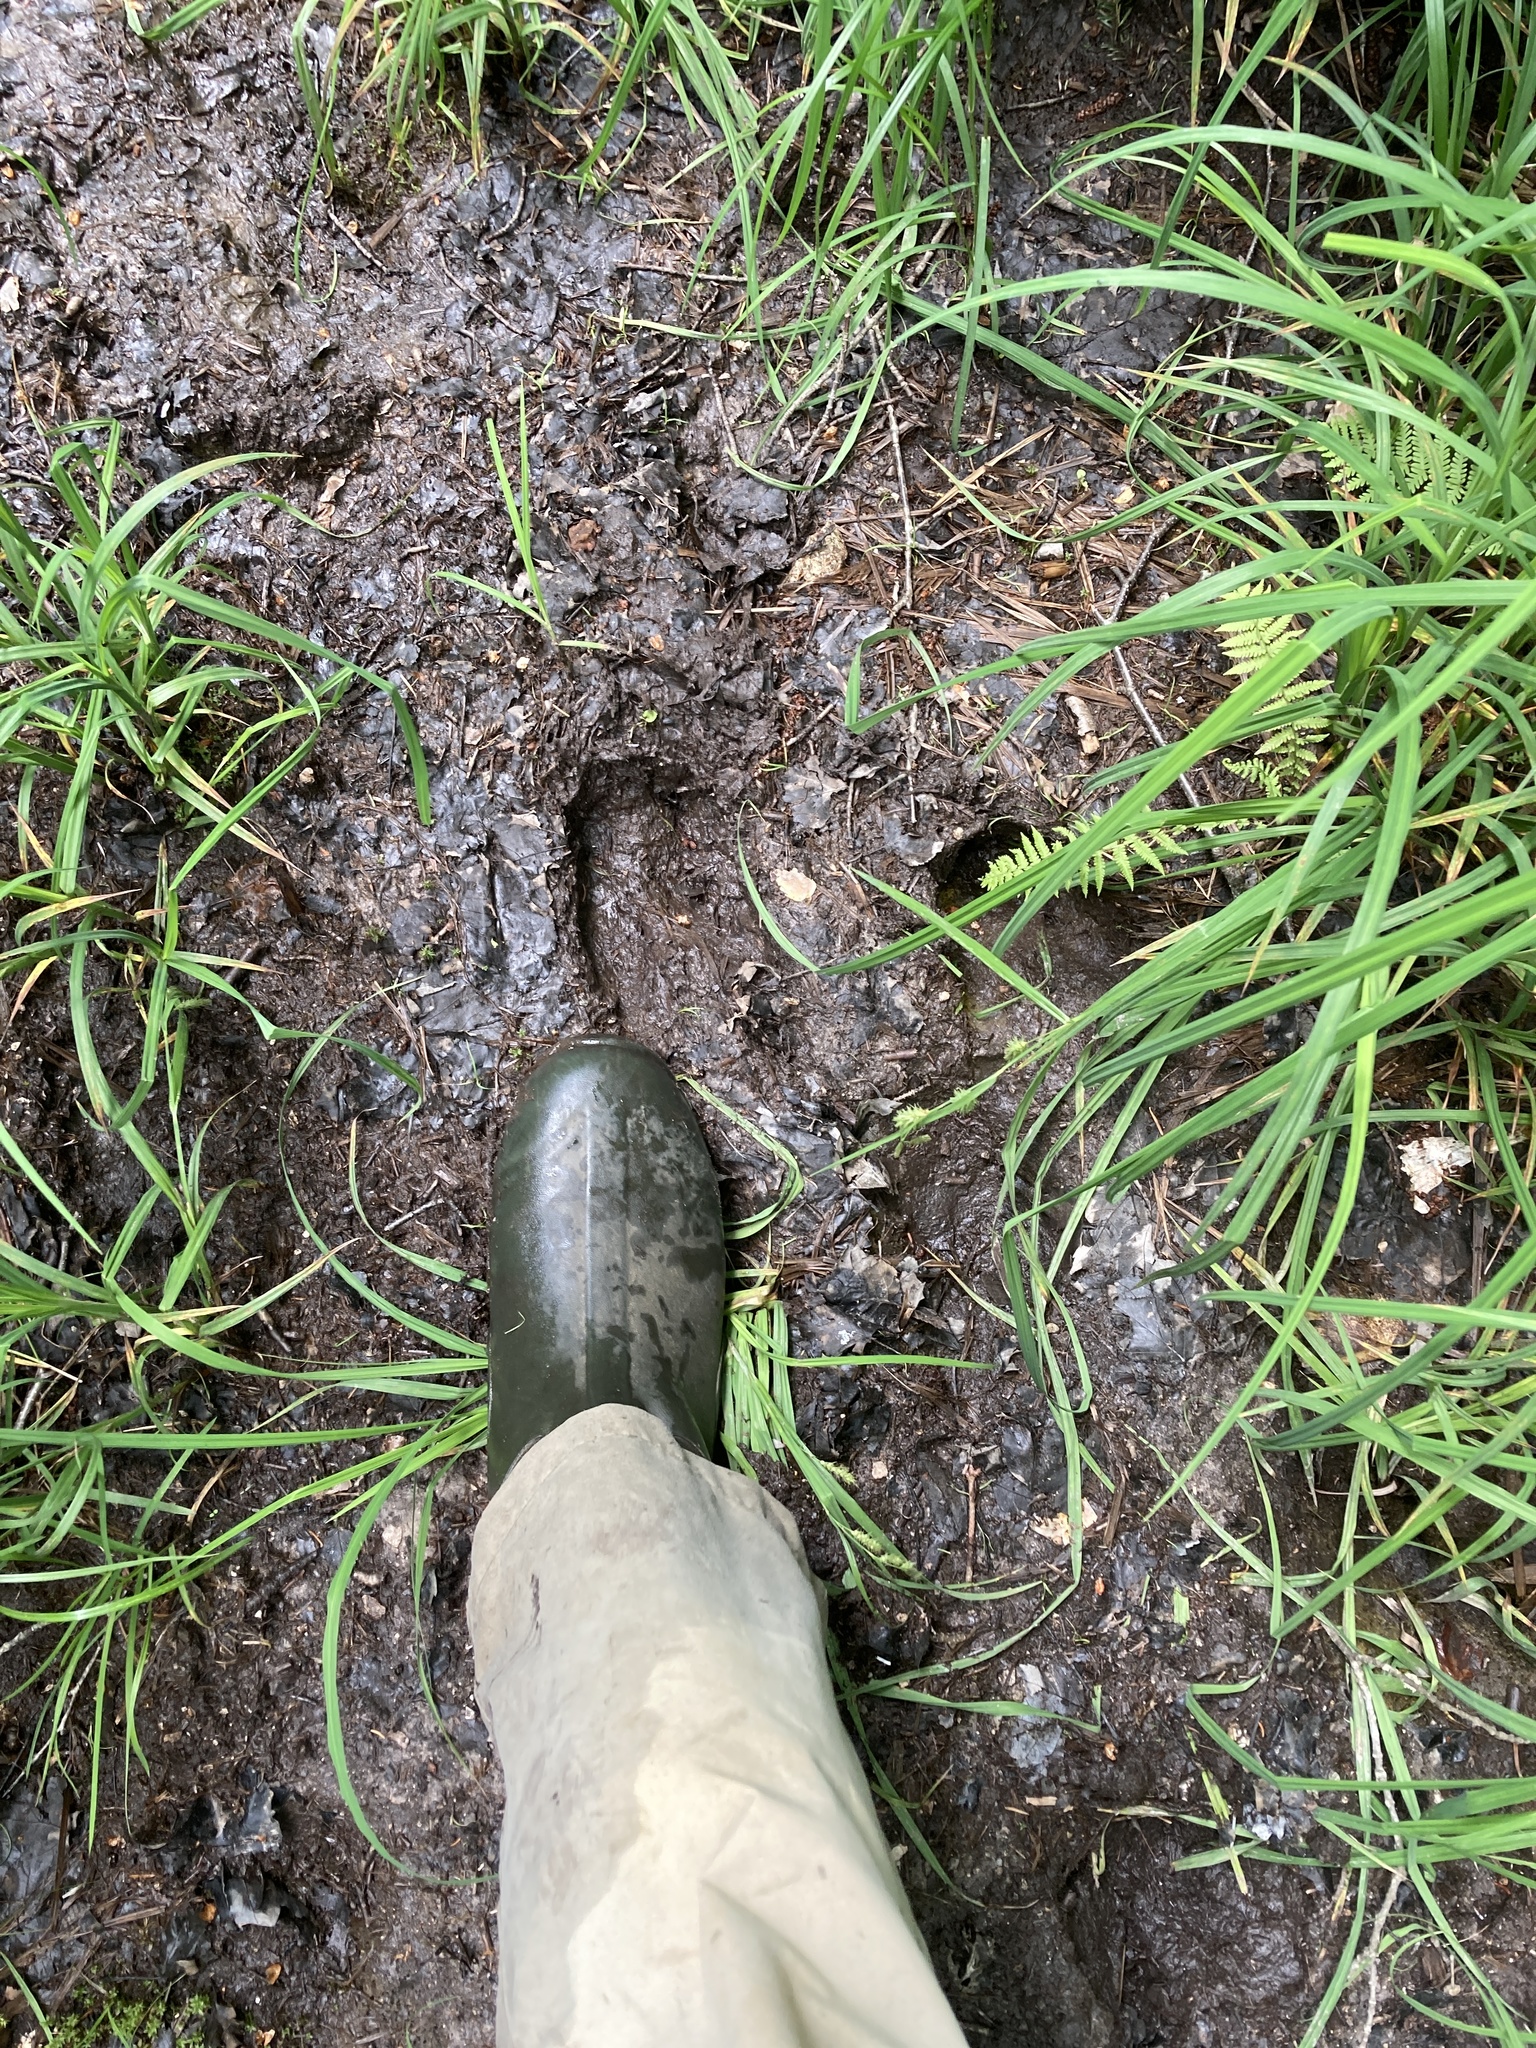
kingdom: Animalia
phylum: Chordata
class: Mammalia
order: Artiodactyla
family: Cervidae
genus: Alces
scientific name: Alces alces
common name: Moose
